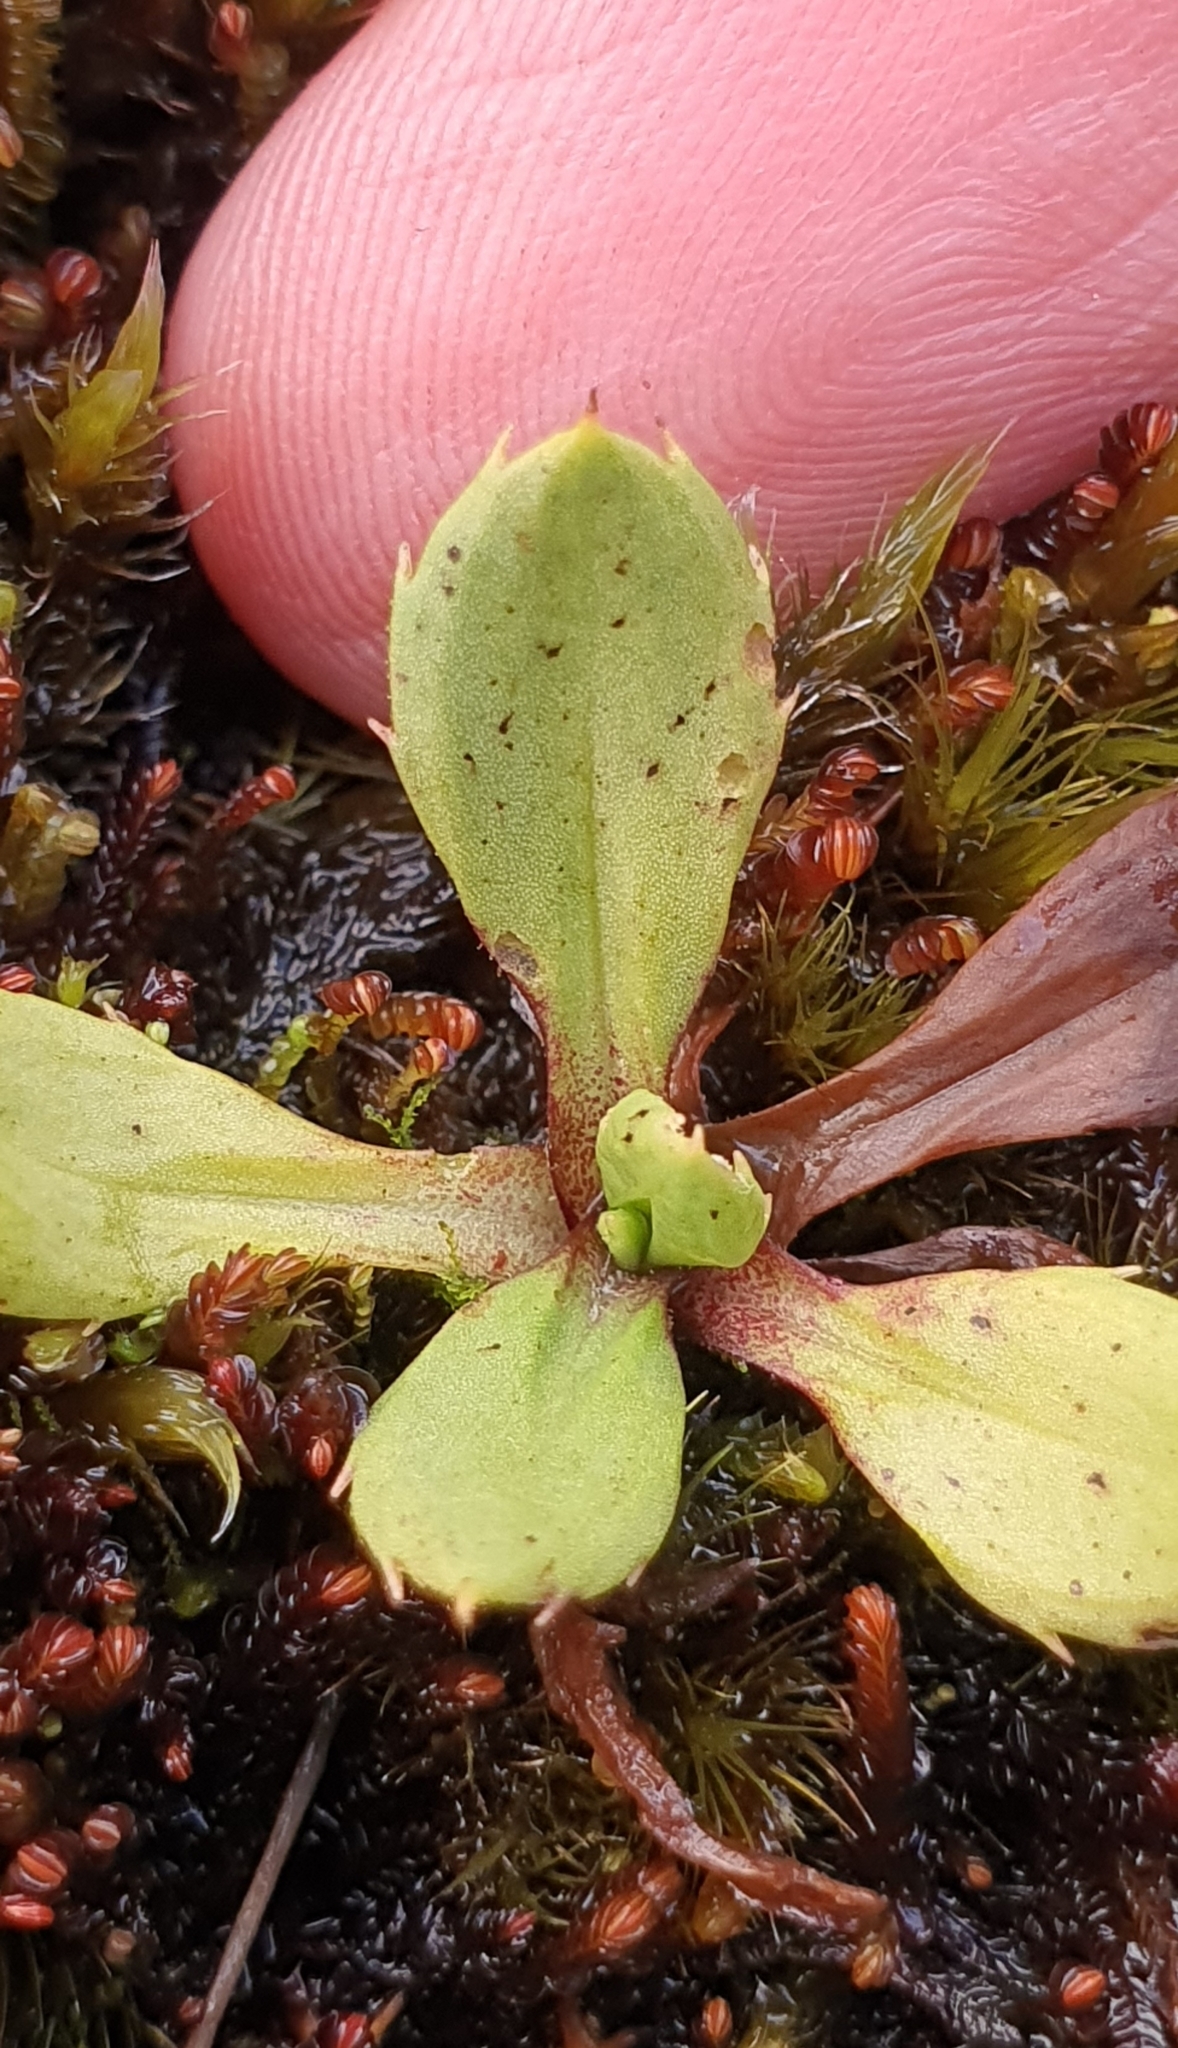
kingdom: Plantae
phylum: Tracheophyta
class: Magnoliopsida
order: Asterales
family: Asteraceae
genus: Celmisia
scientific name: Celmisia glandulosa
